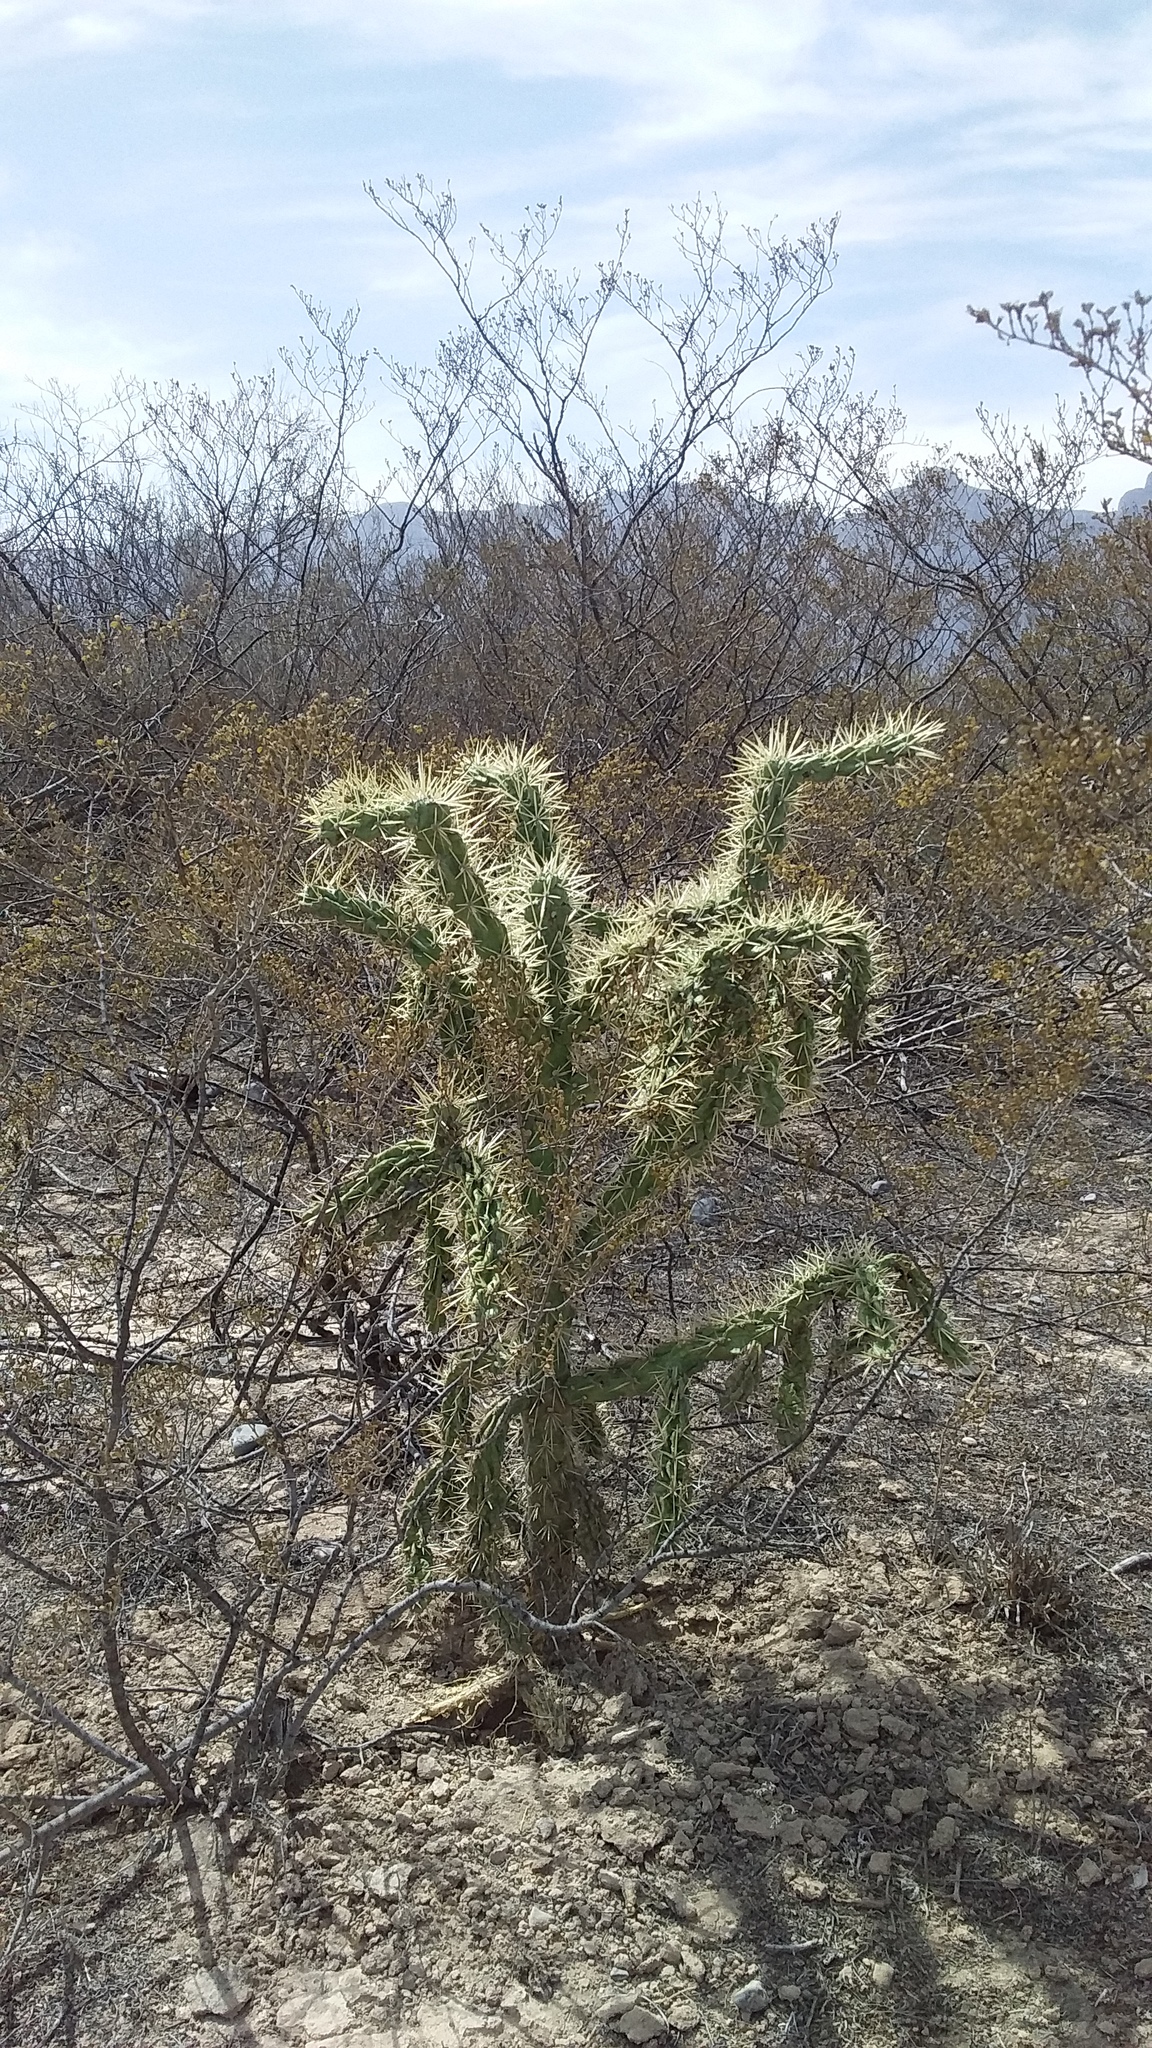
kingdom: Plantae
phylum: Tracheophyta
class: Magnoliopsida
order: Caryophyllales
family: Cactaceae
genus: Cylindropuntia
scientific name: Cylindropuntia imbricata
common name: Candelabrum cactus
